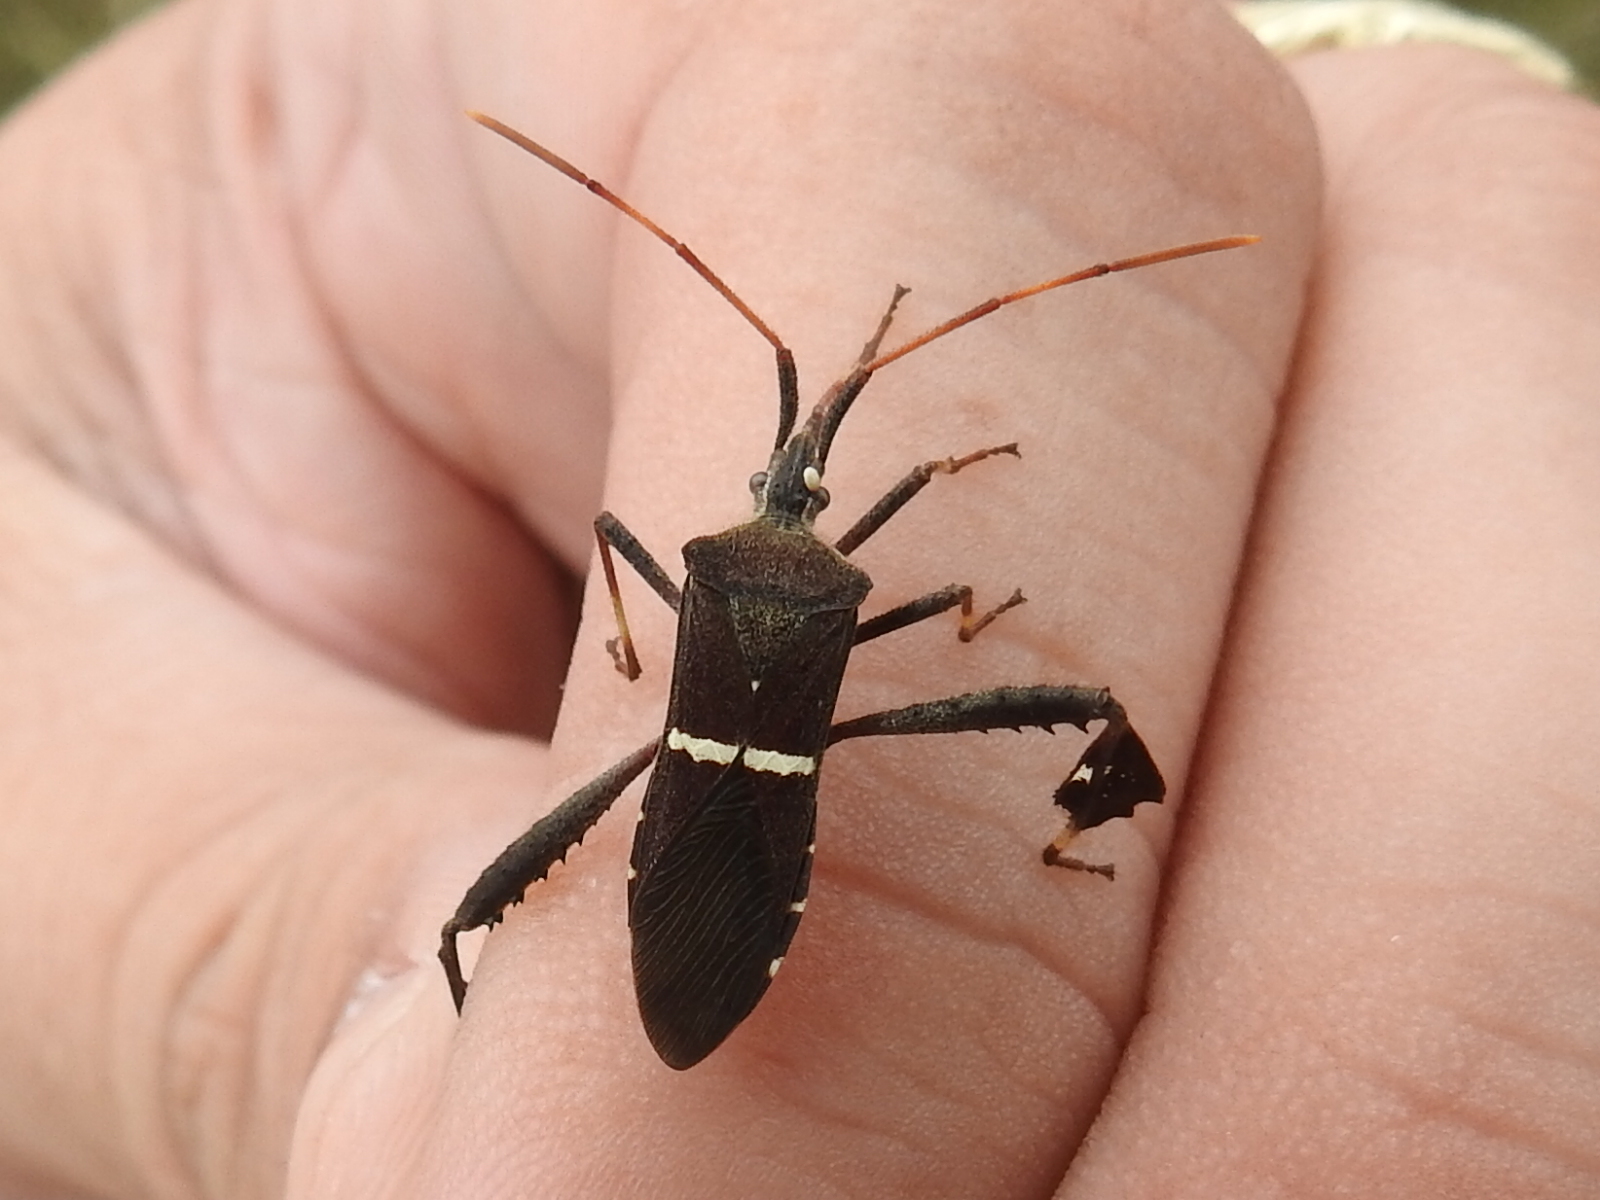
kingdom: Animalia
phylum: Arthropoda
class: Insecta
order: Hemiptera
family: Coreidae
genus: Leptoglossus
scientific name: Leptoglossus phyllopus
